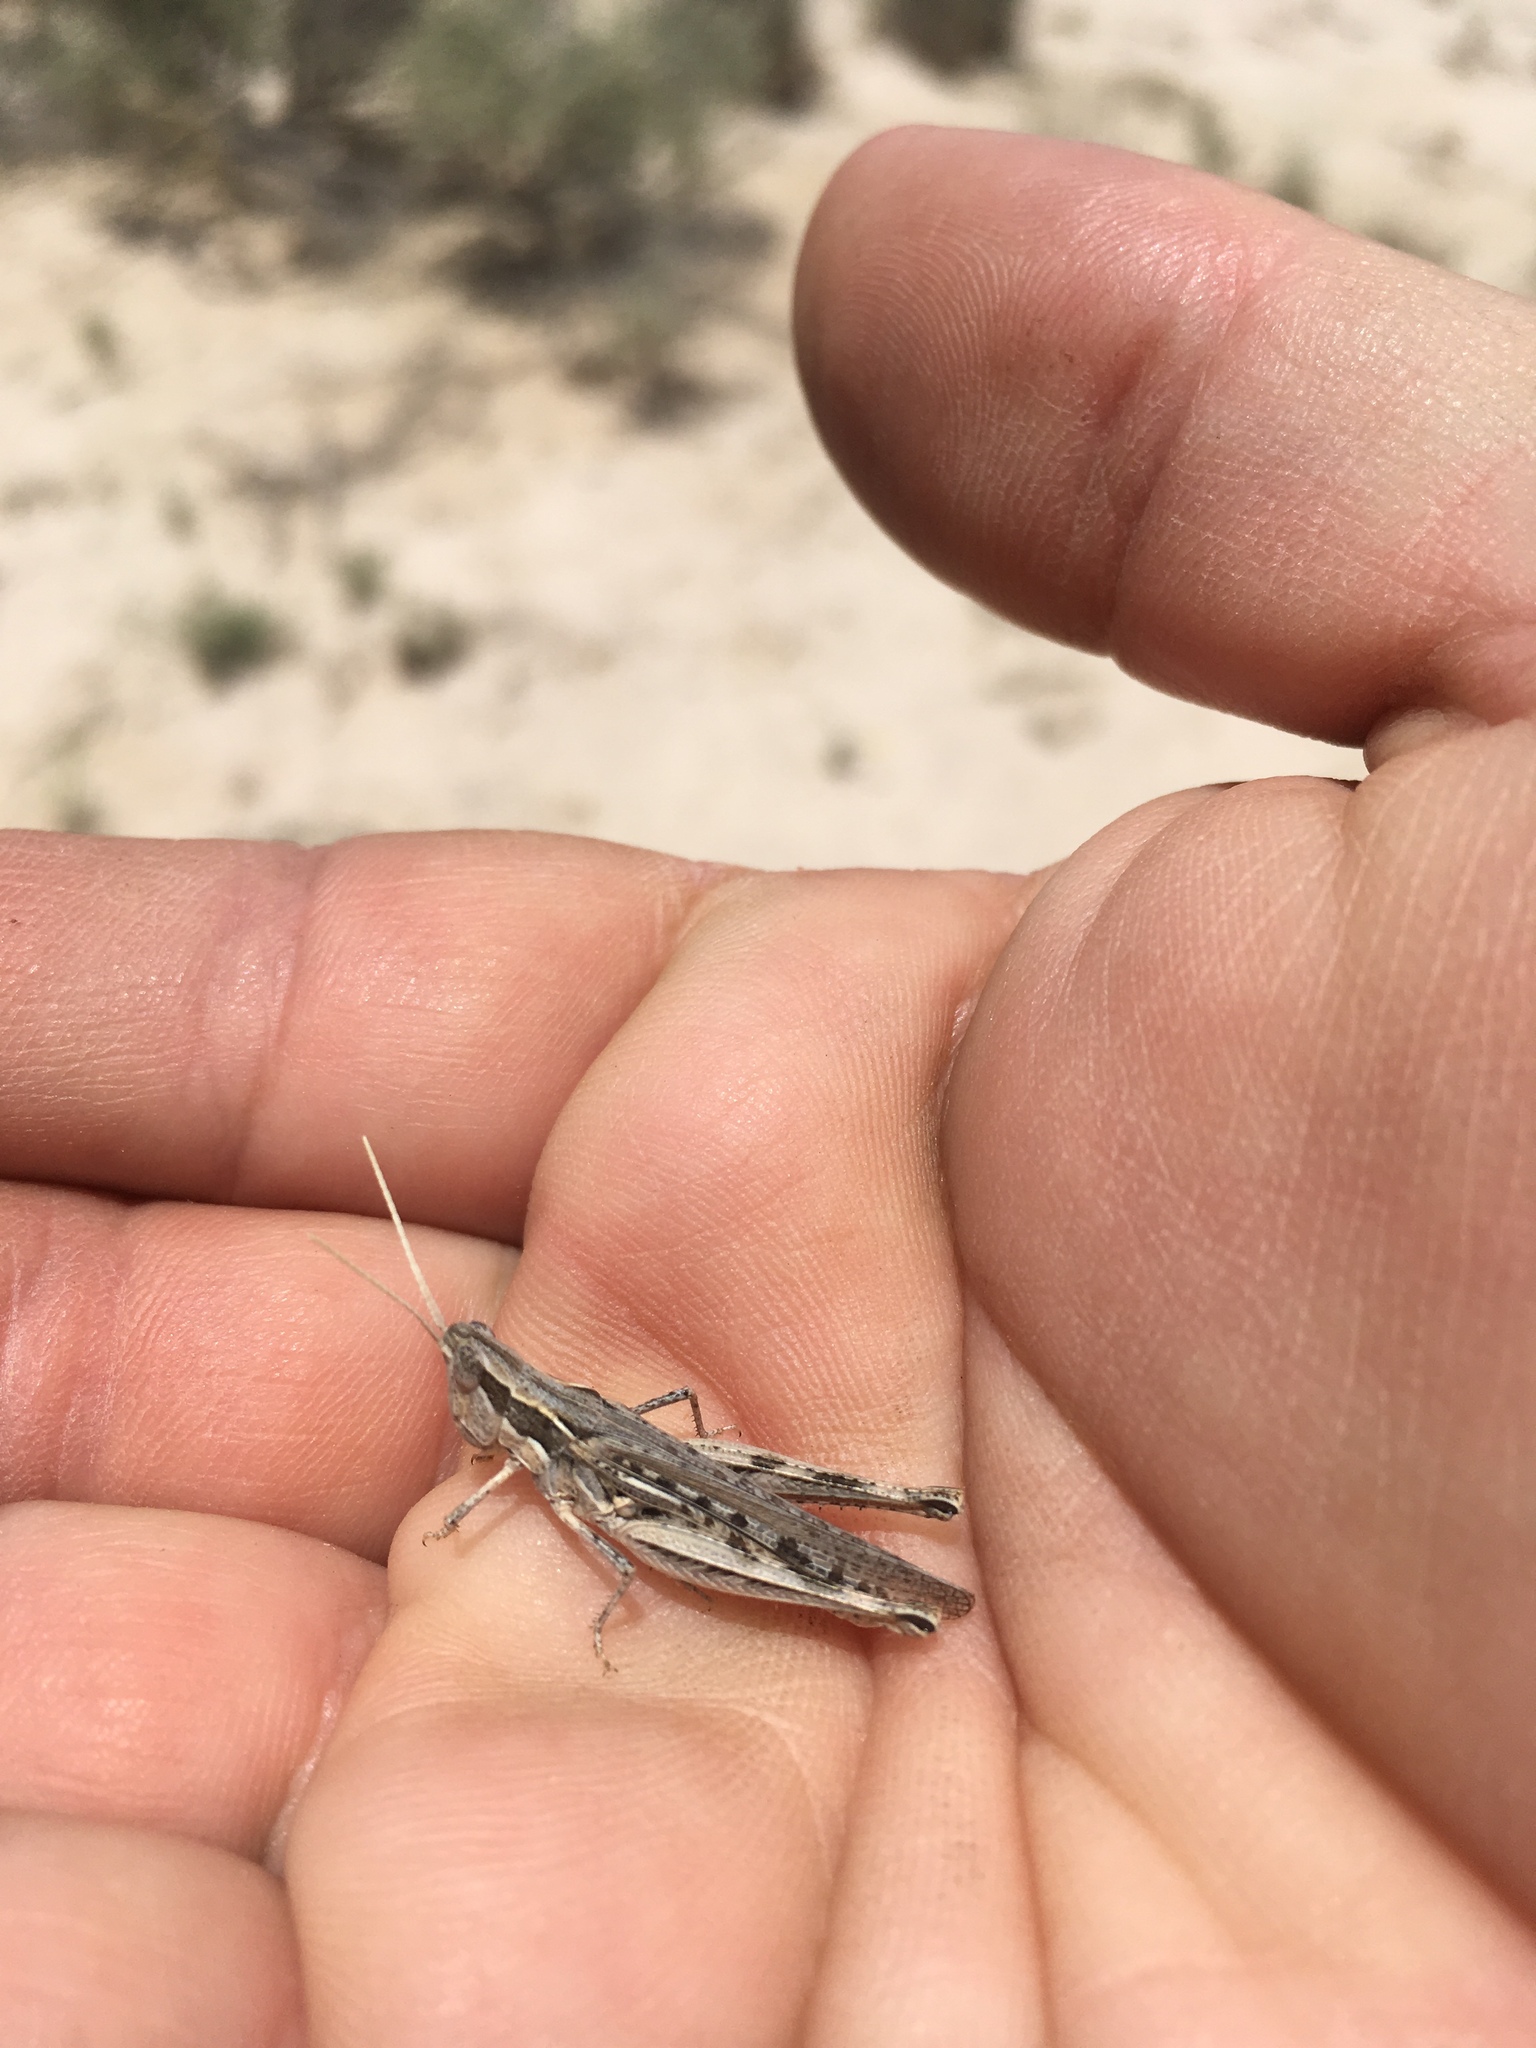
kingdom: Animalia
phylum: Arthropoda
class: Insecta
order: Orthoptera
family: Acrididae
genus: Cordillacris
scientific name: Cordillacris occipitalis
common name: Spotted-winged grasshopper
